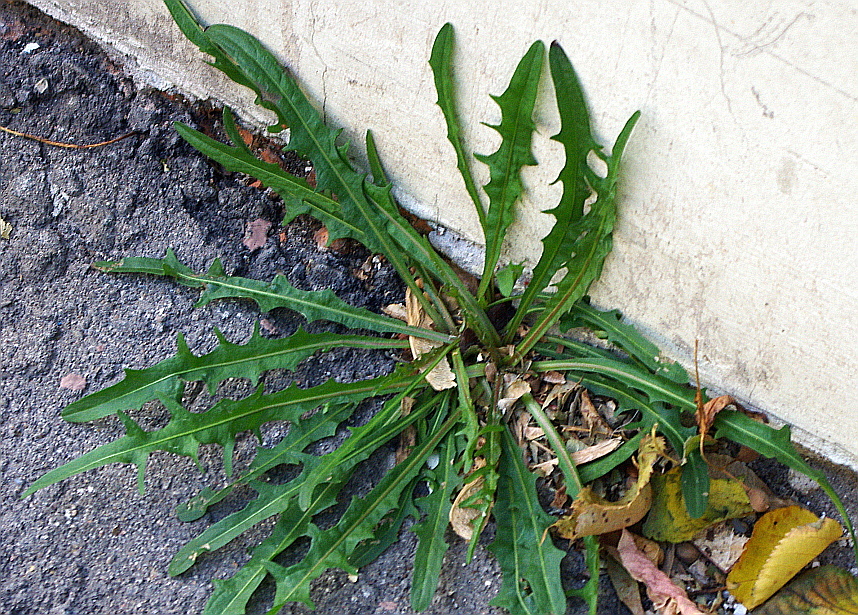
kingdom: Plantae
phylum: Tracheophyta
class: Magnoliopsida
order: Asterales
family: Asteraceae
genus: Scorzoneroides
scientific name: Scorzoneroides autumnalis
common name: Autumn hawkbit
